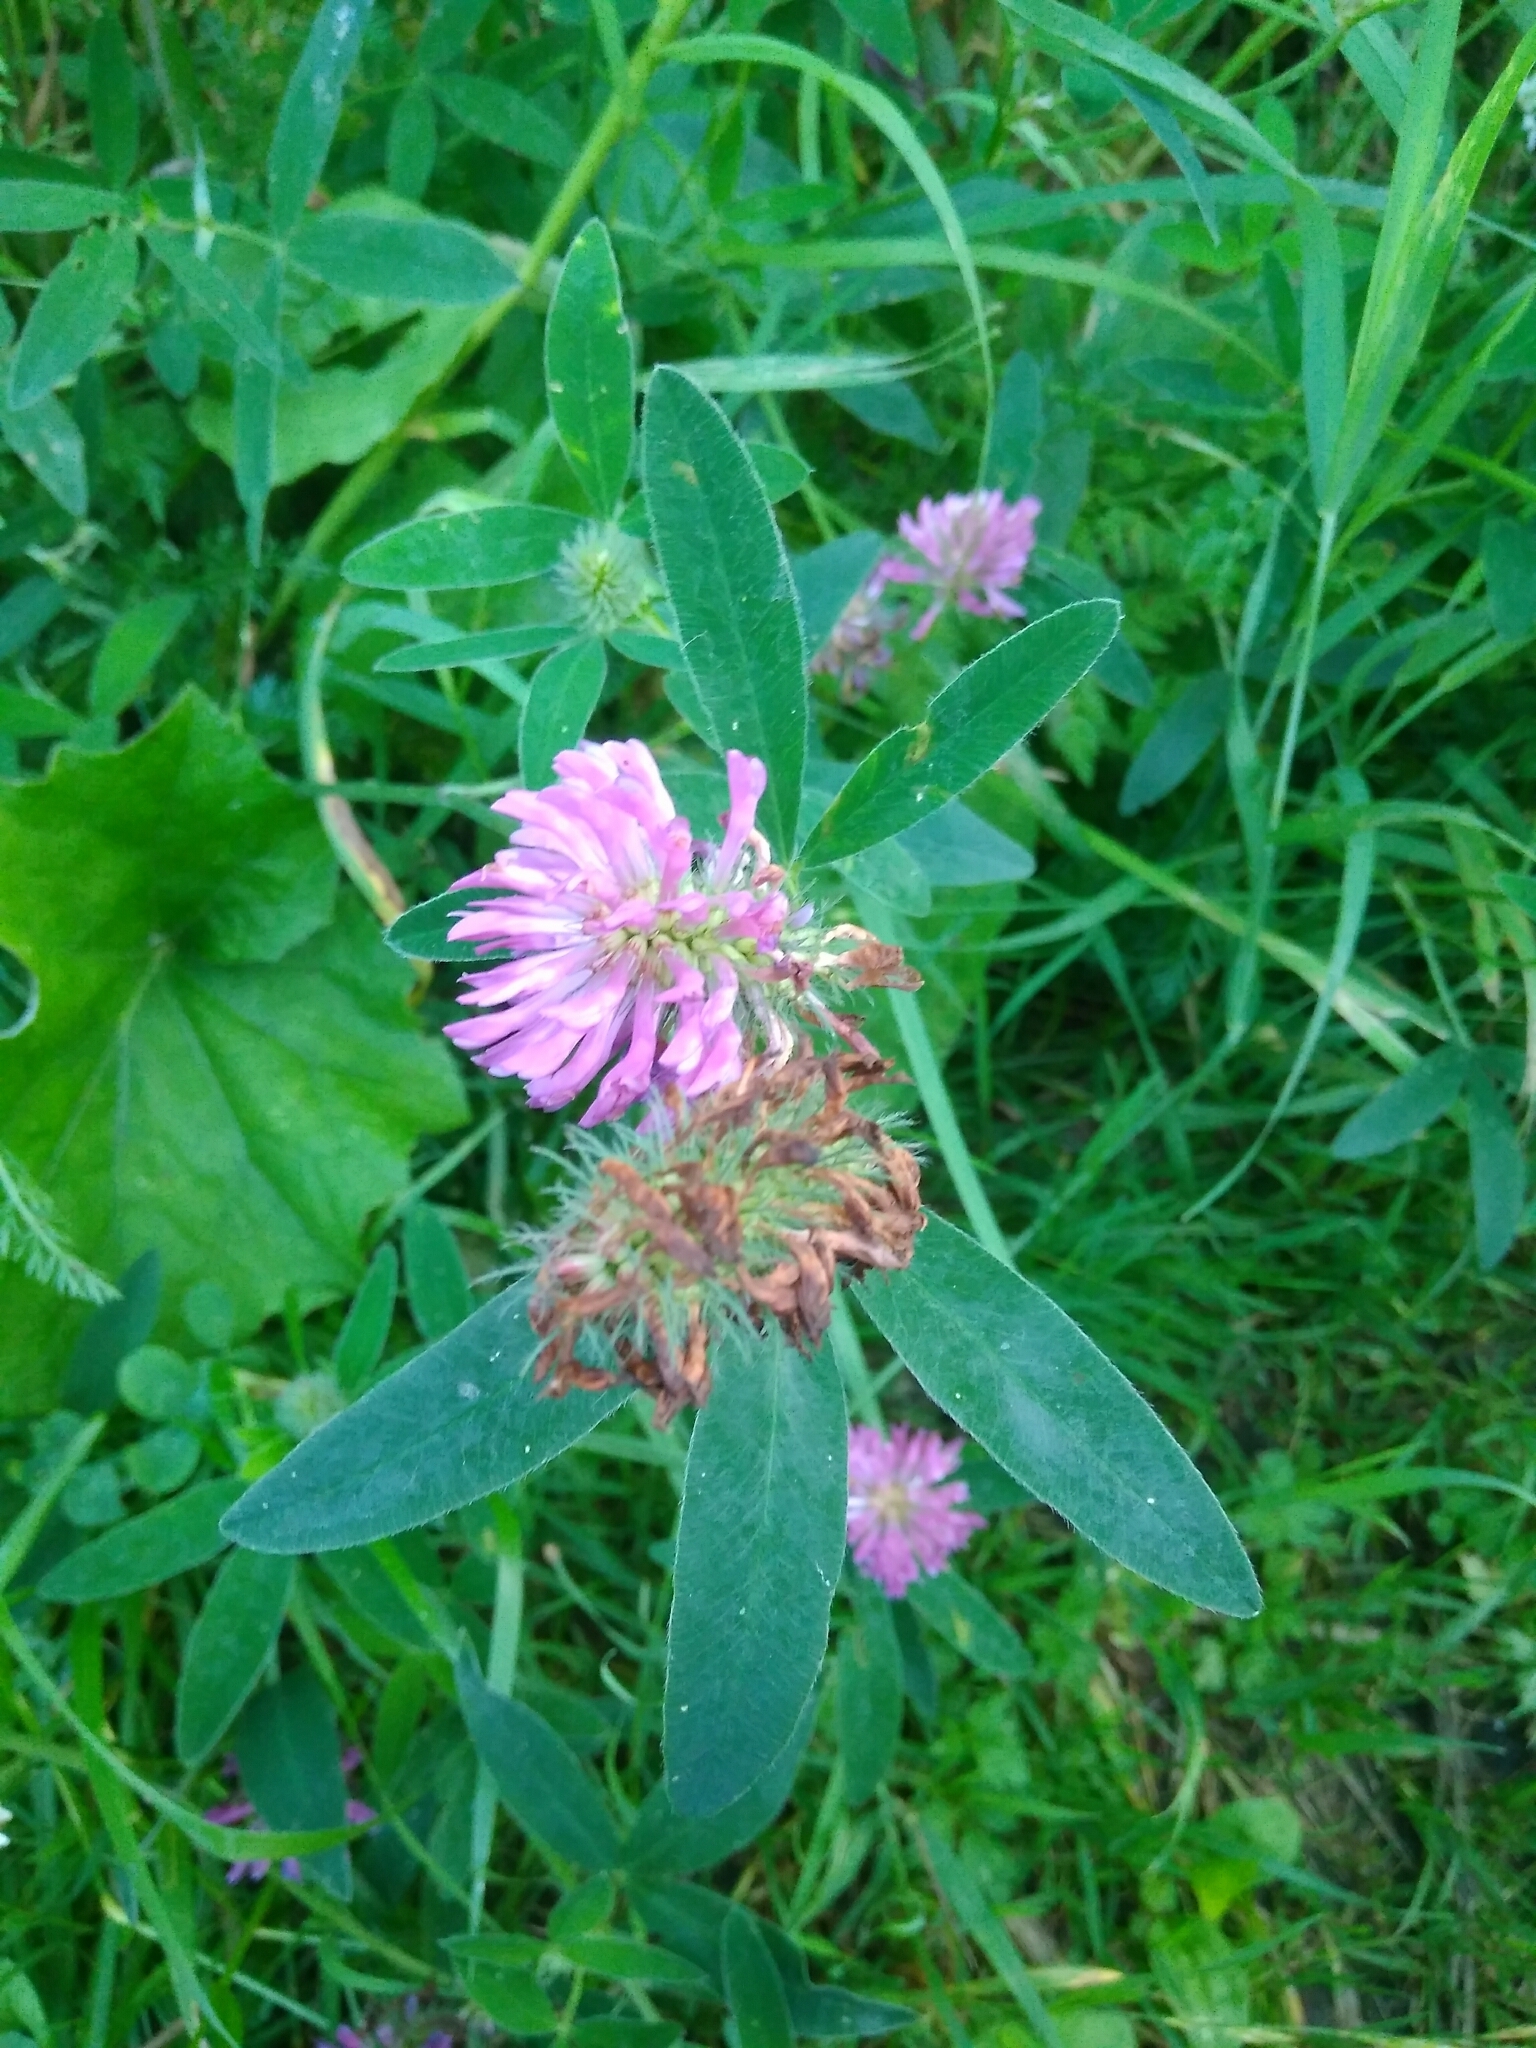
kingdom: Plantae
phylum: Tracheophyta
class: Magnoliopsida
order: Fabales
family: Fabaceae
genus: Trifolium
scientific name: Trifolium medium
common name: Zigzag clover
